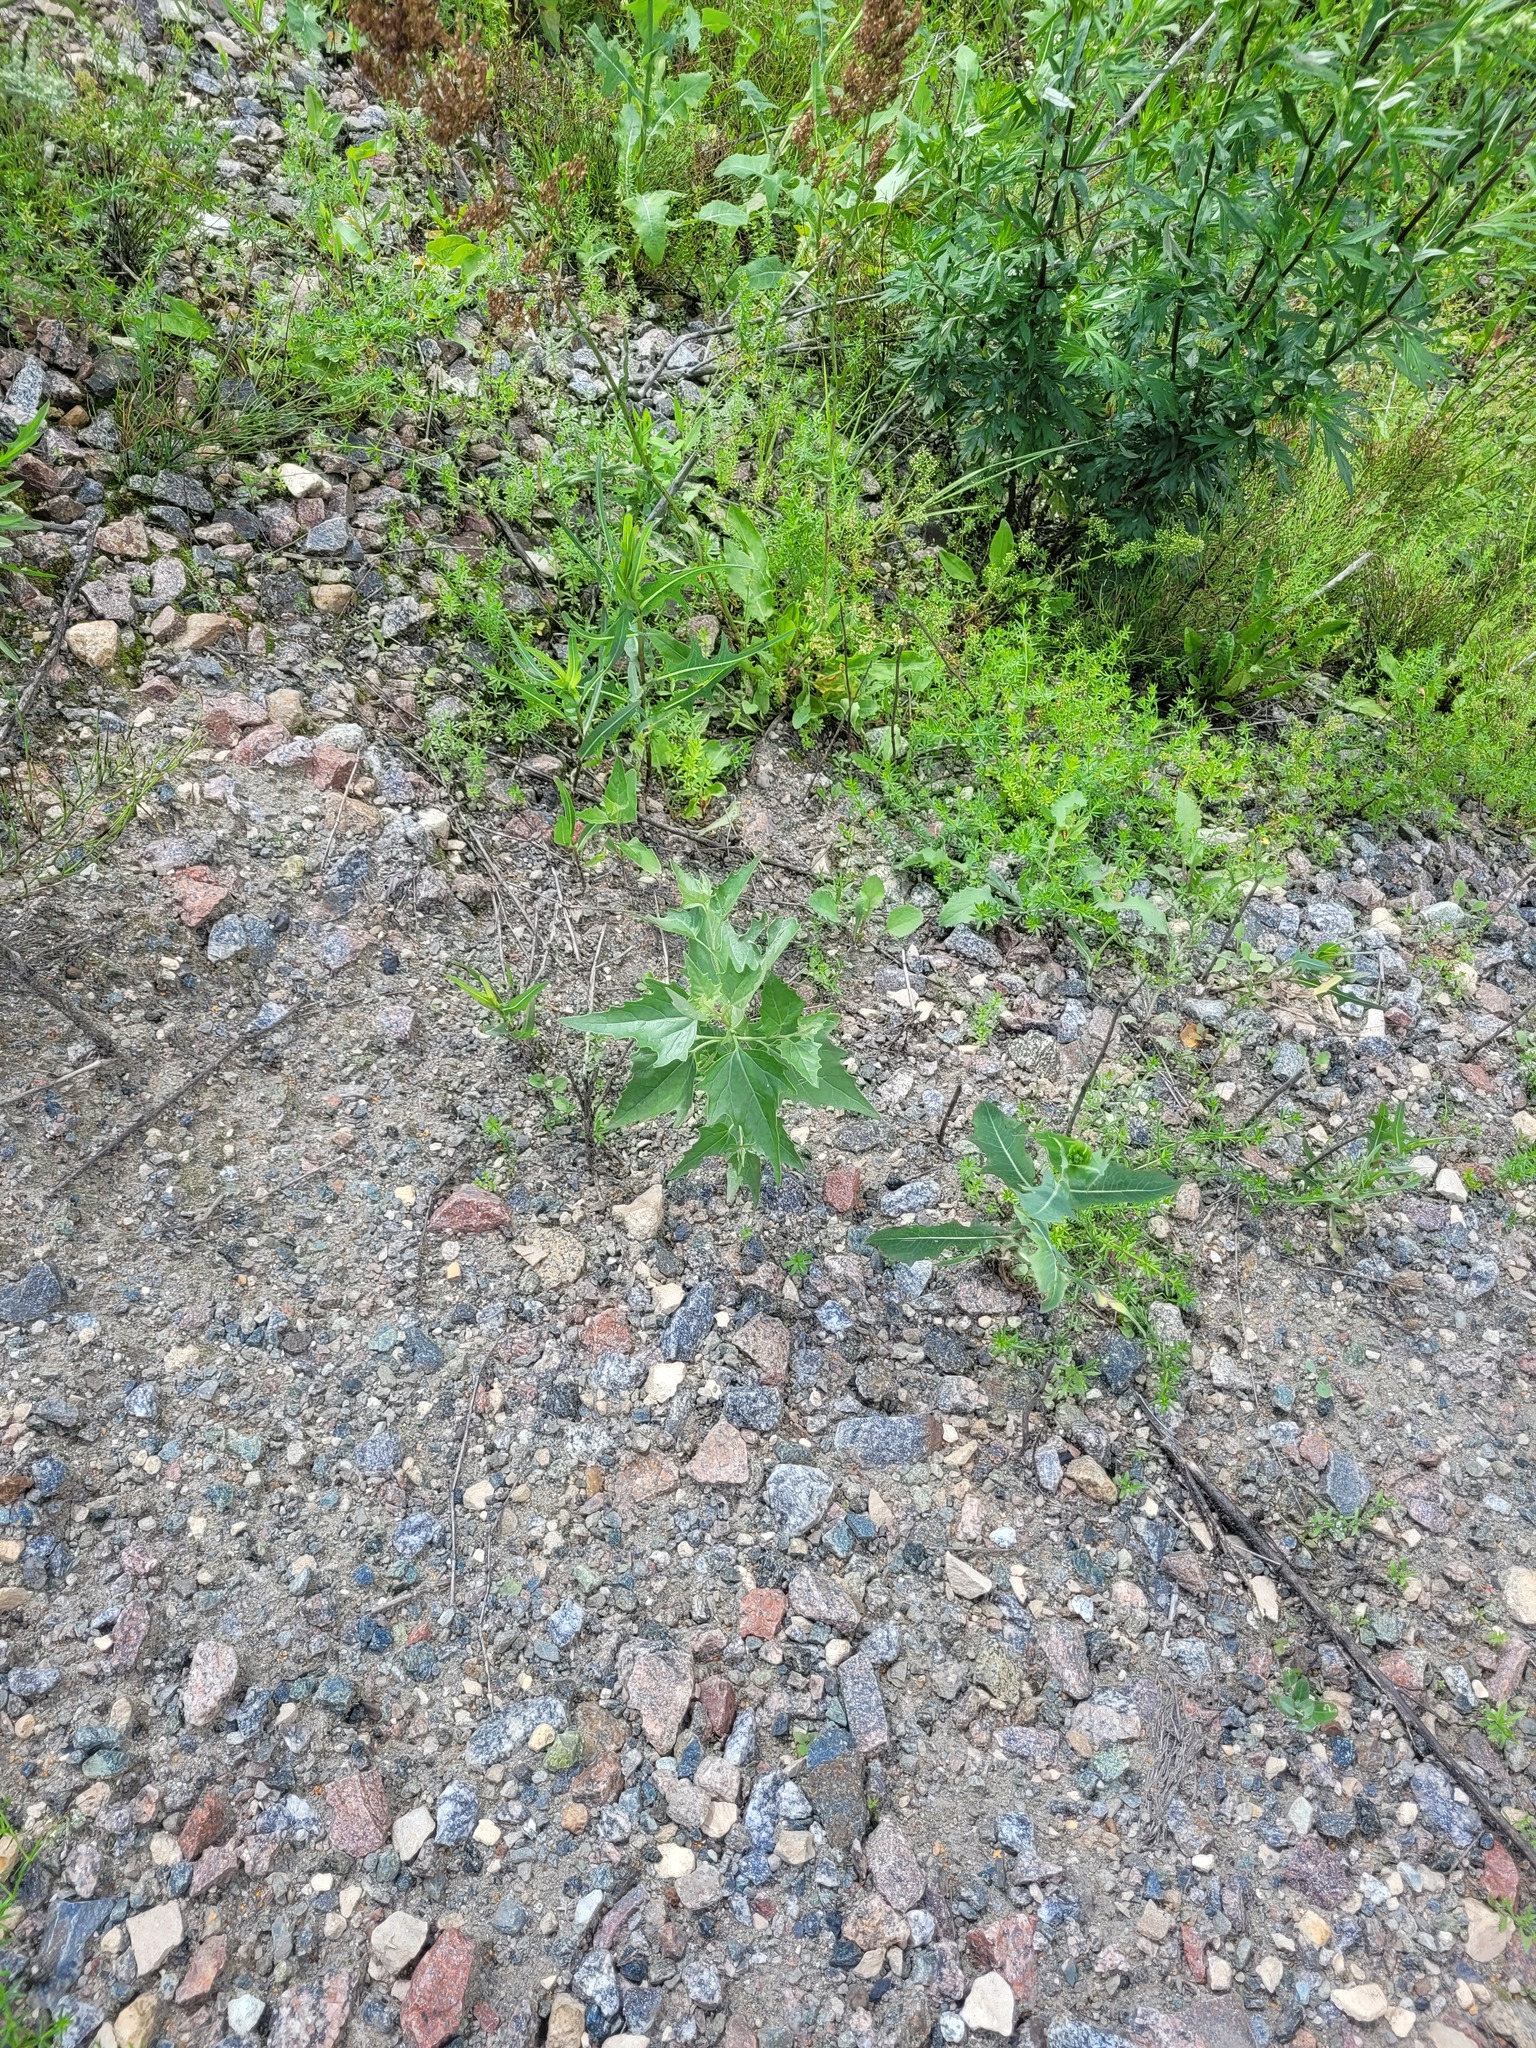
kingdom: Plantae
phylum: Tracheophyta
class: Magnoliopsida
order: Caryophyllales
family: Amaranthaceae
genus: Atriplex
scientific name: Atriplex sagittata
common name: Purple orache
